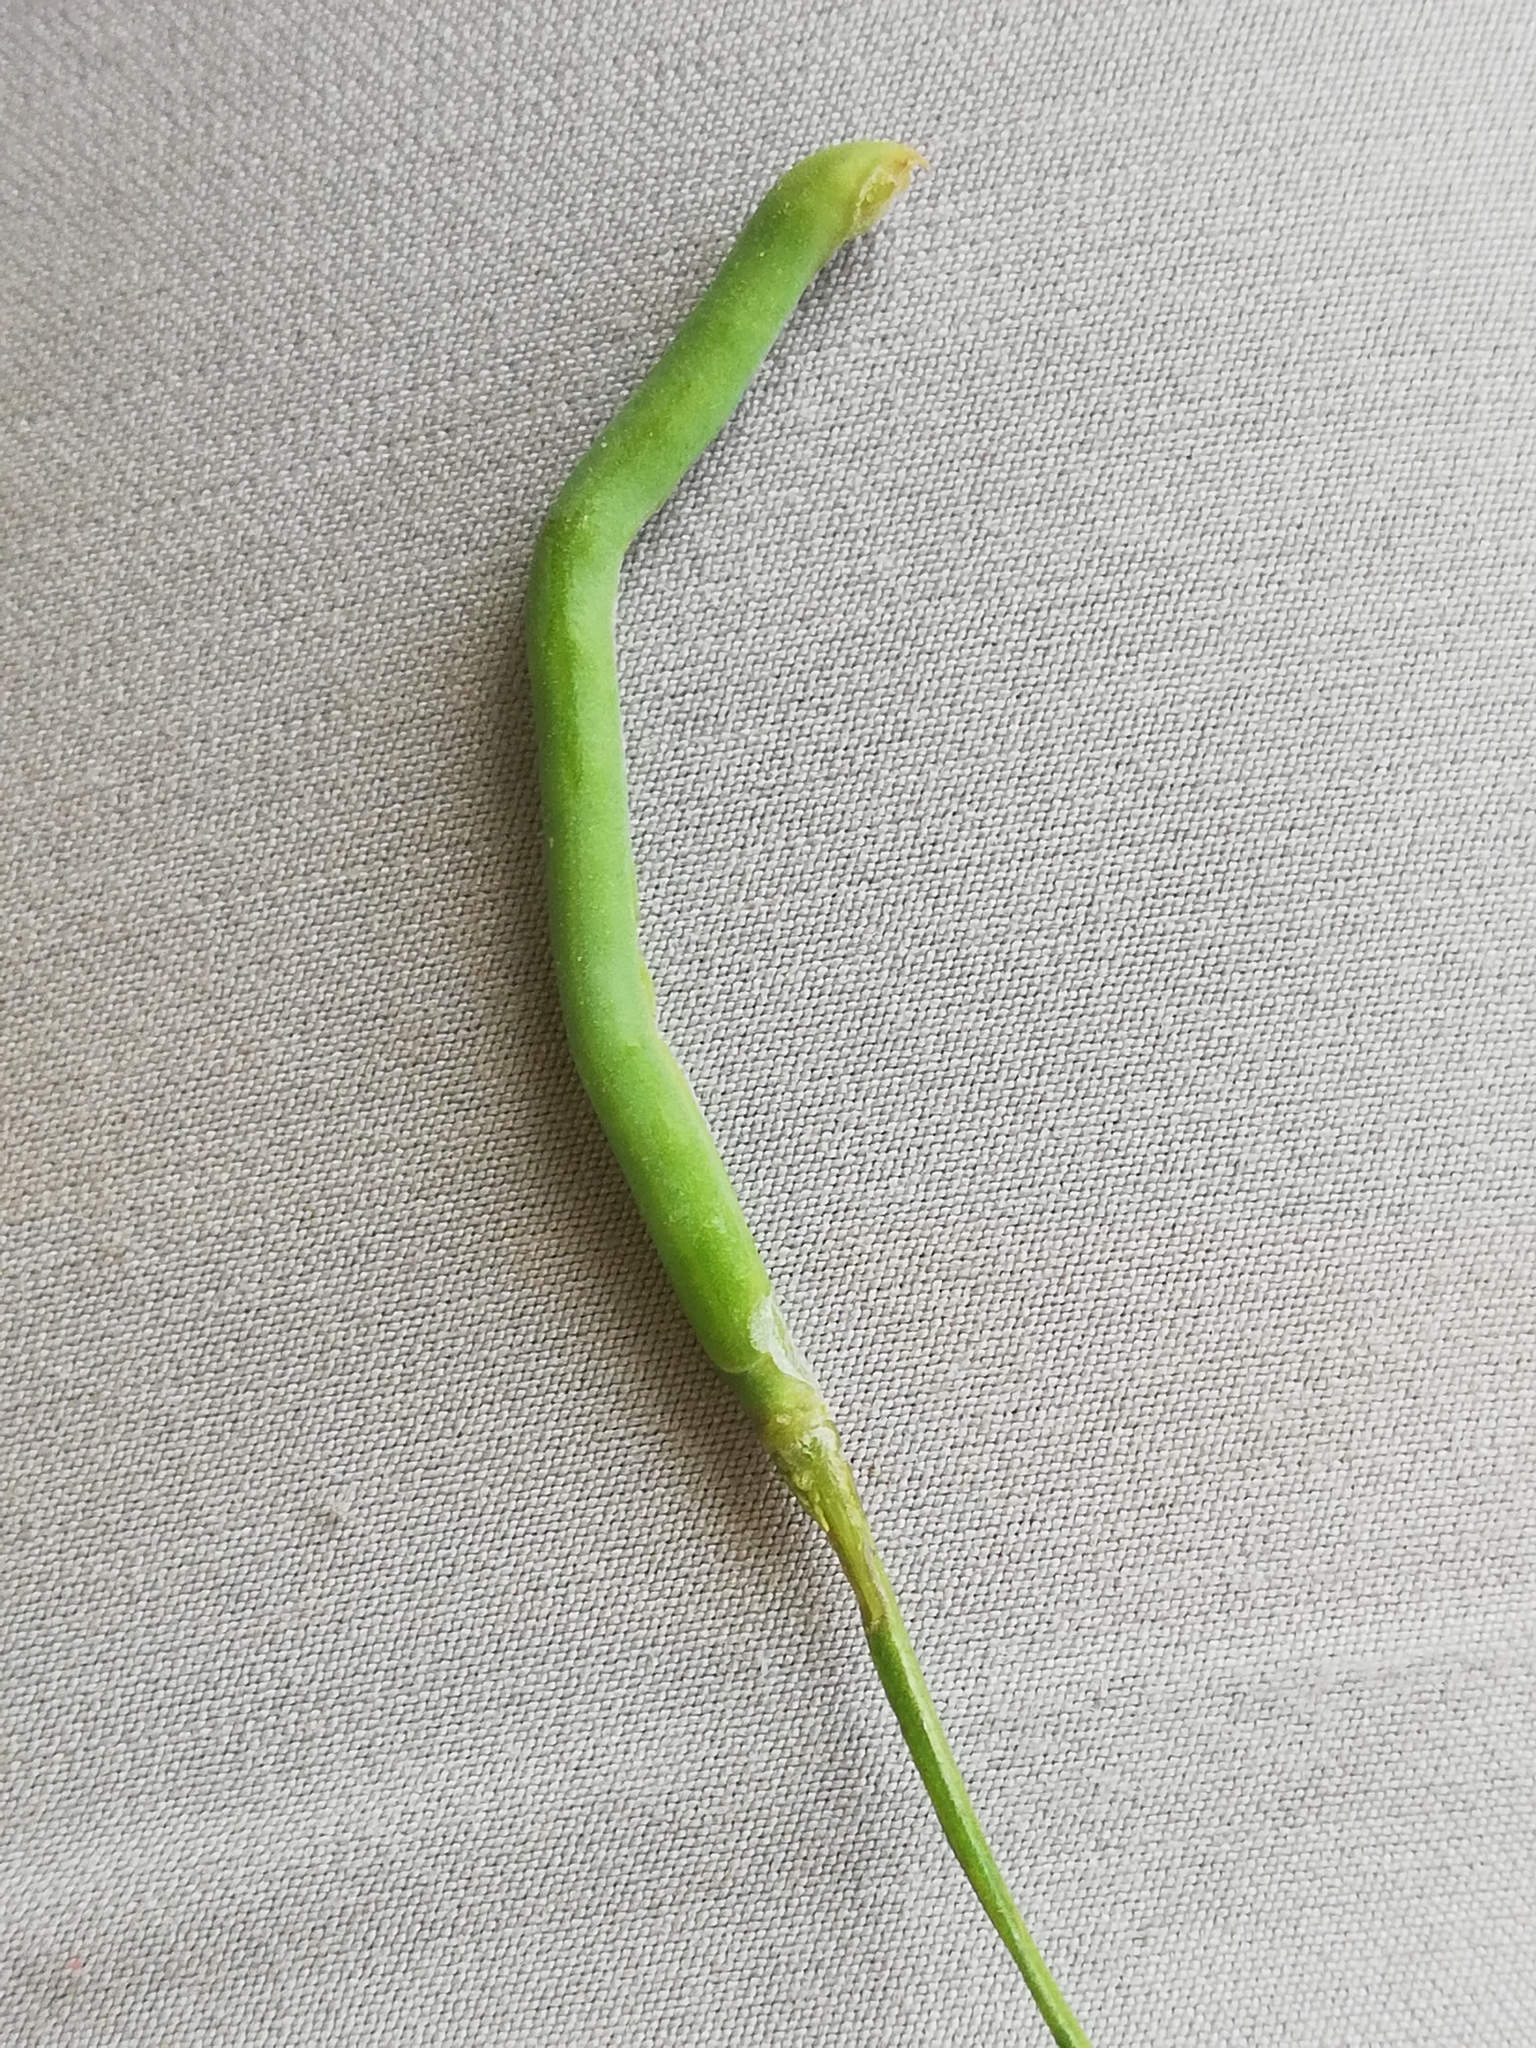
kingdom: Plantae
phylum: Tracheophyta
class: Magnoliopsida
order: Brassicales
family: Brassicaceae
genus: Brassica
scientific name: Brassica rapa
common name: Field mustard
